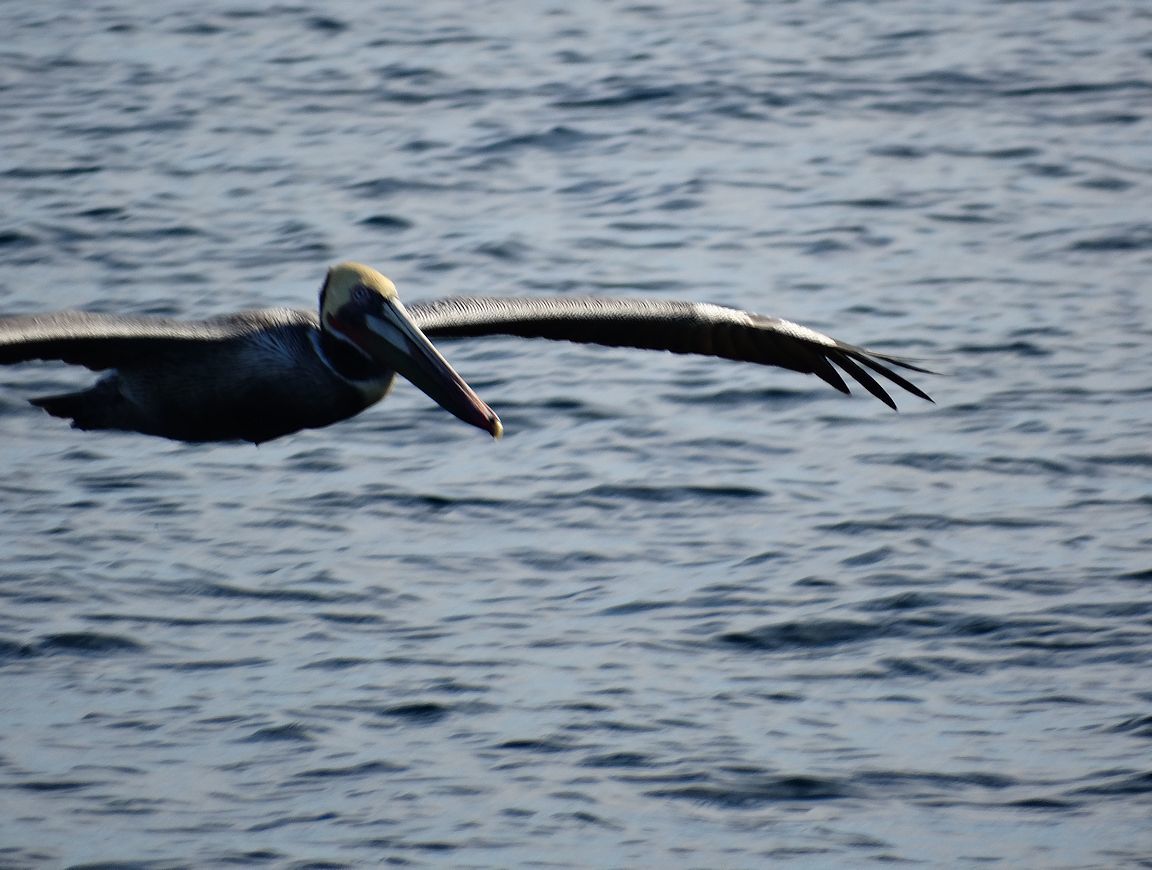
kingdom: Animalia
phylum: Chordata
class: Aves
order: Pelecaniformes
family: Pelecanidae
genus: Pelecanus
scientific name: Pelecanus occidentalis
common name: Brown pelican
